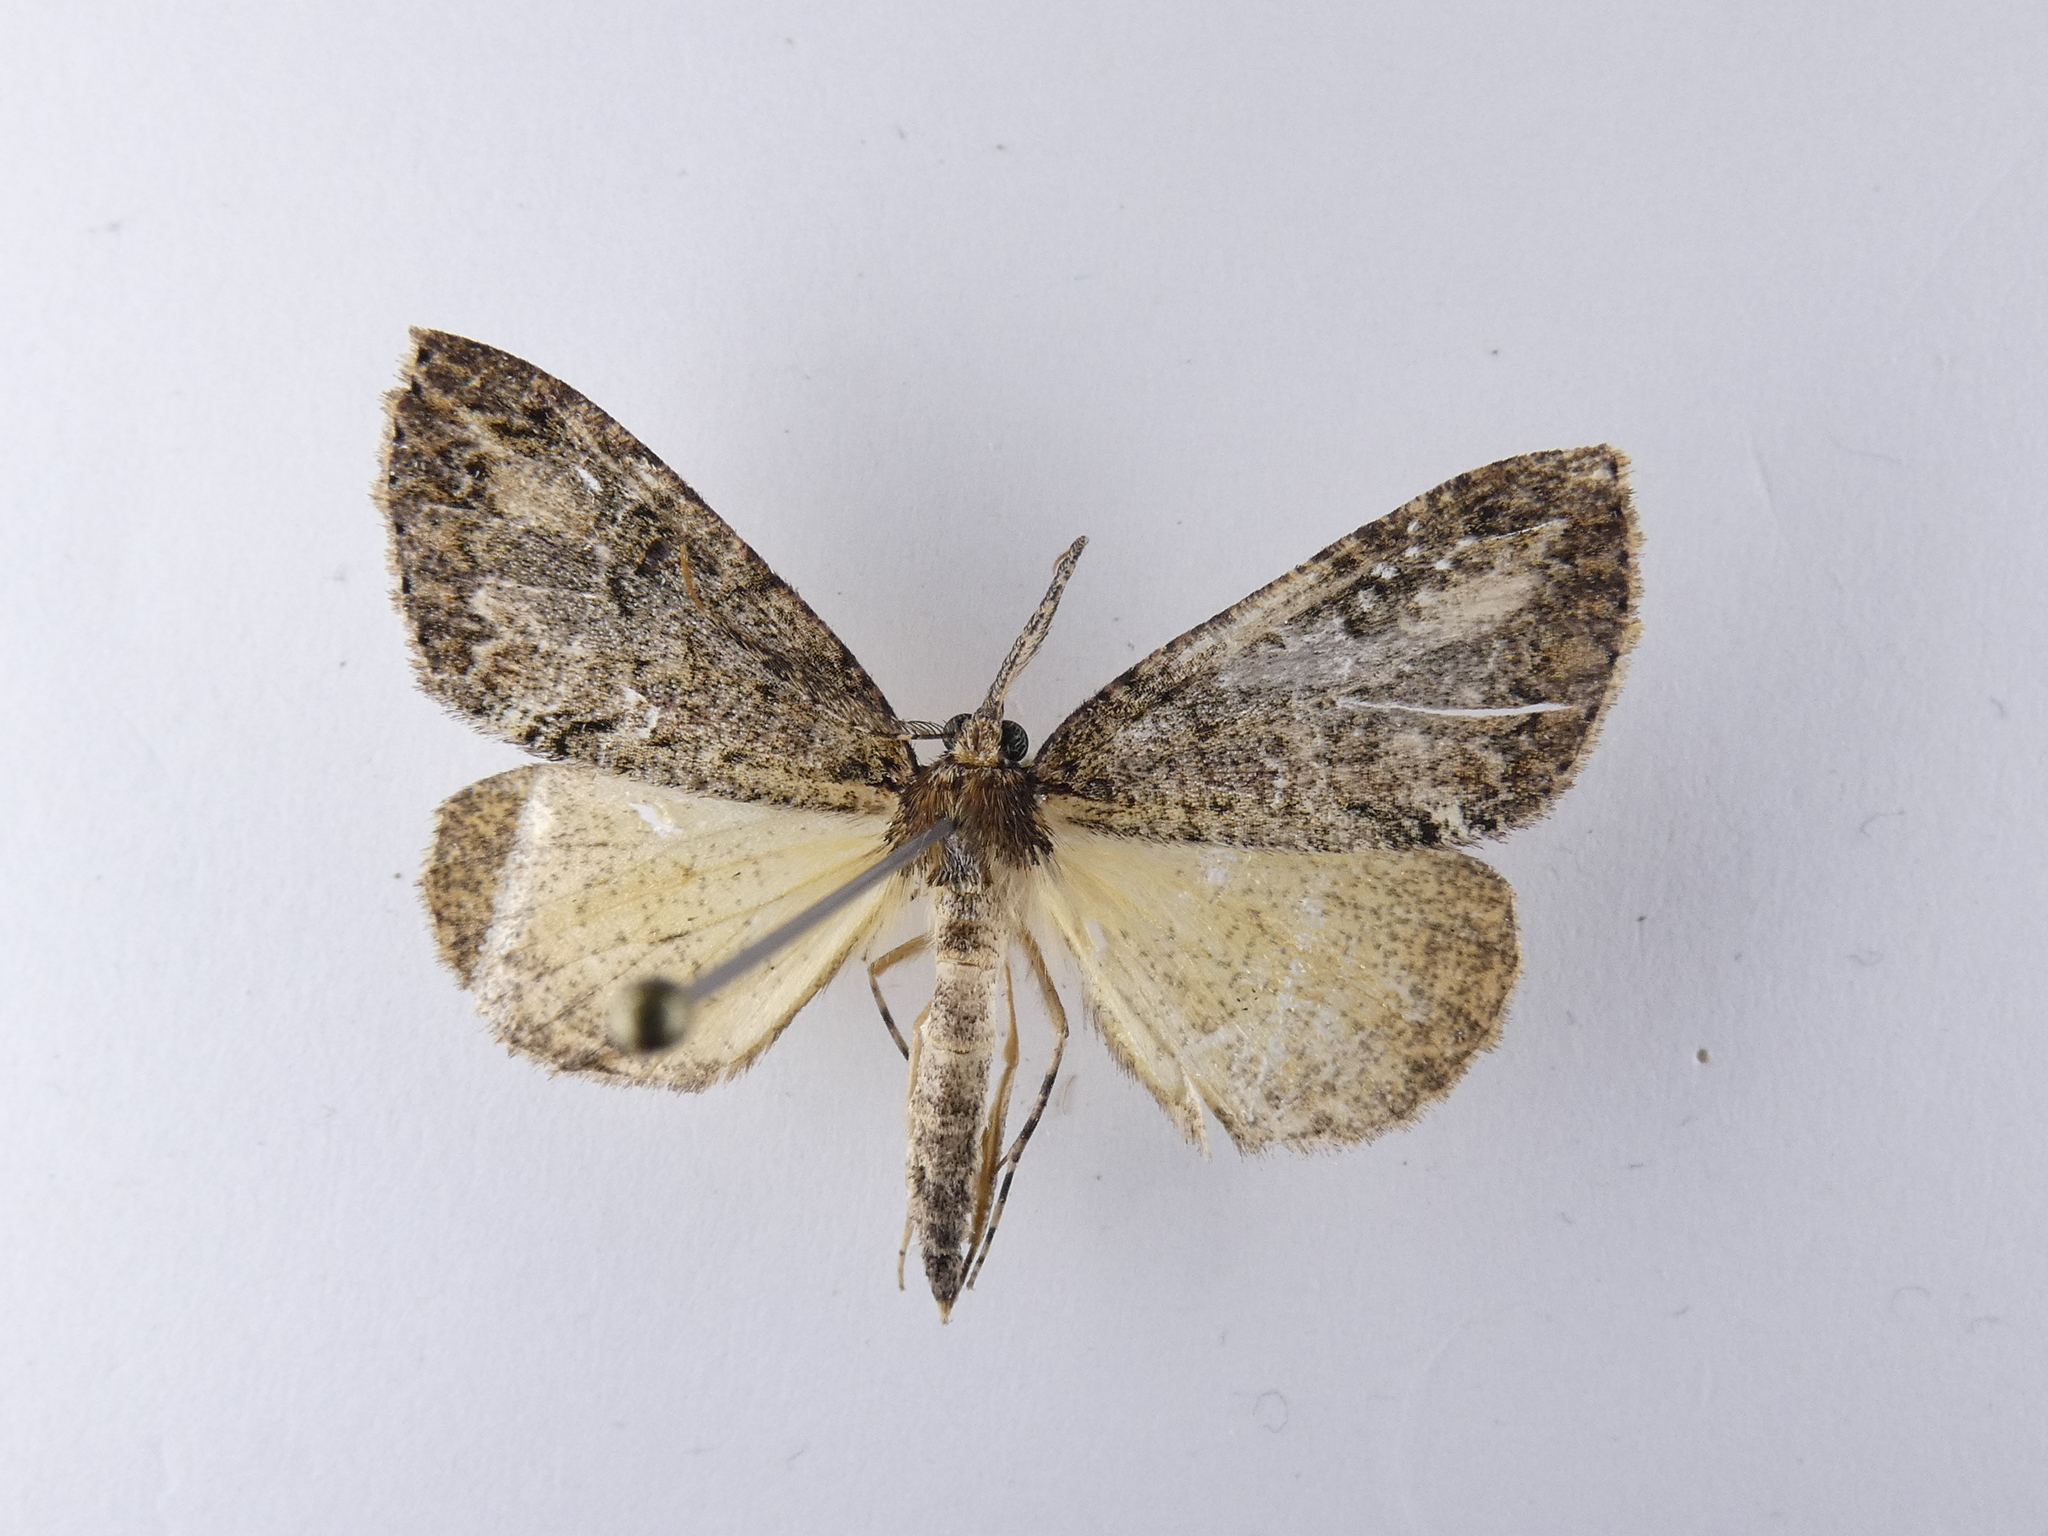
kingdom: Animalia
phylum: Arthropoda
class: Insecta
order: Lepidoptera
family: Geometridae
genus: Pseudocoremia
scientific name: Pseudocoremia suavis
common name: Common forest looper
